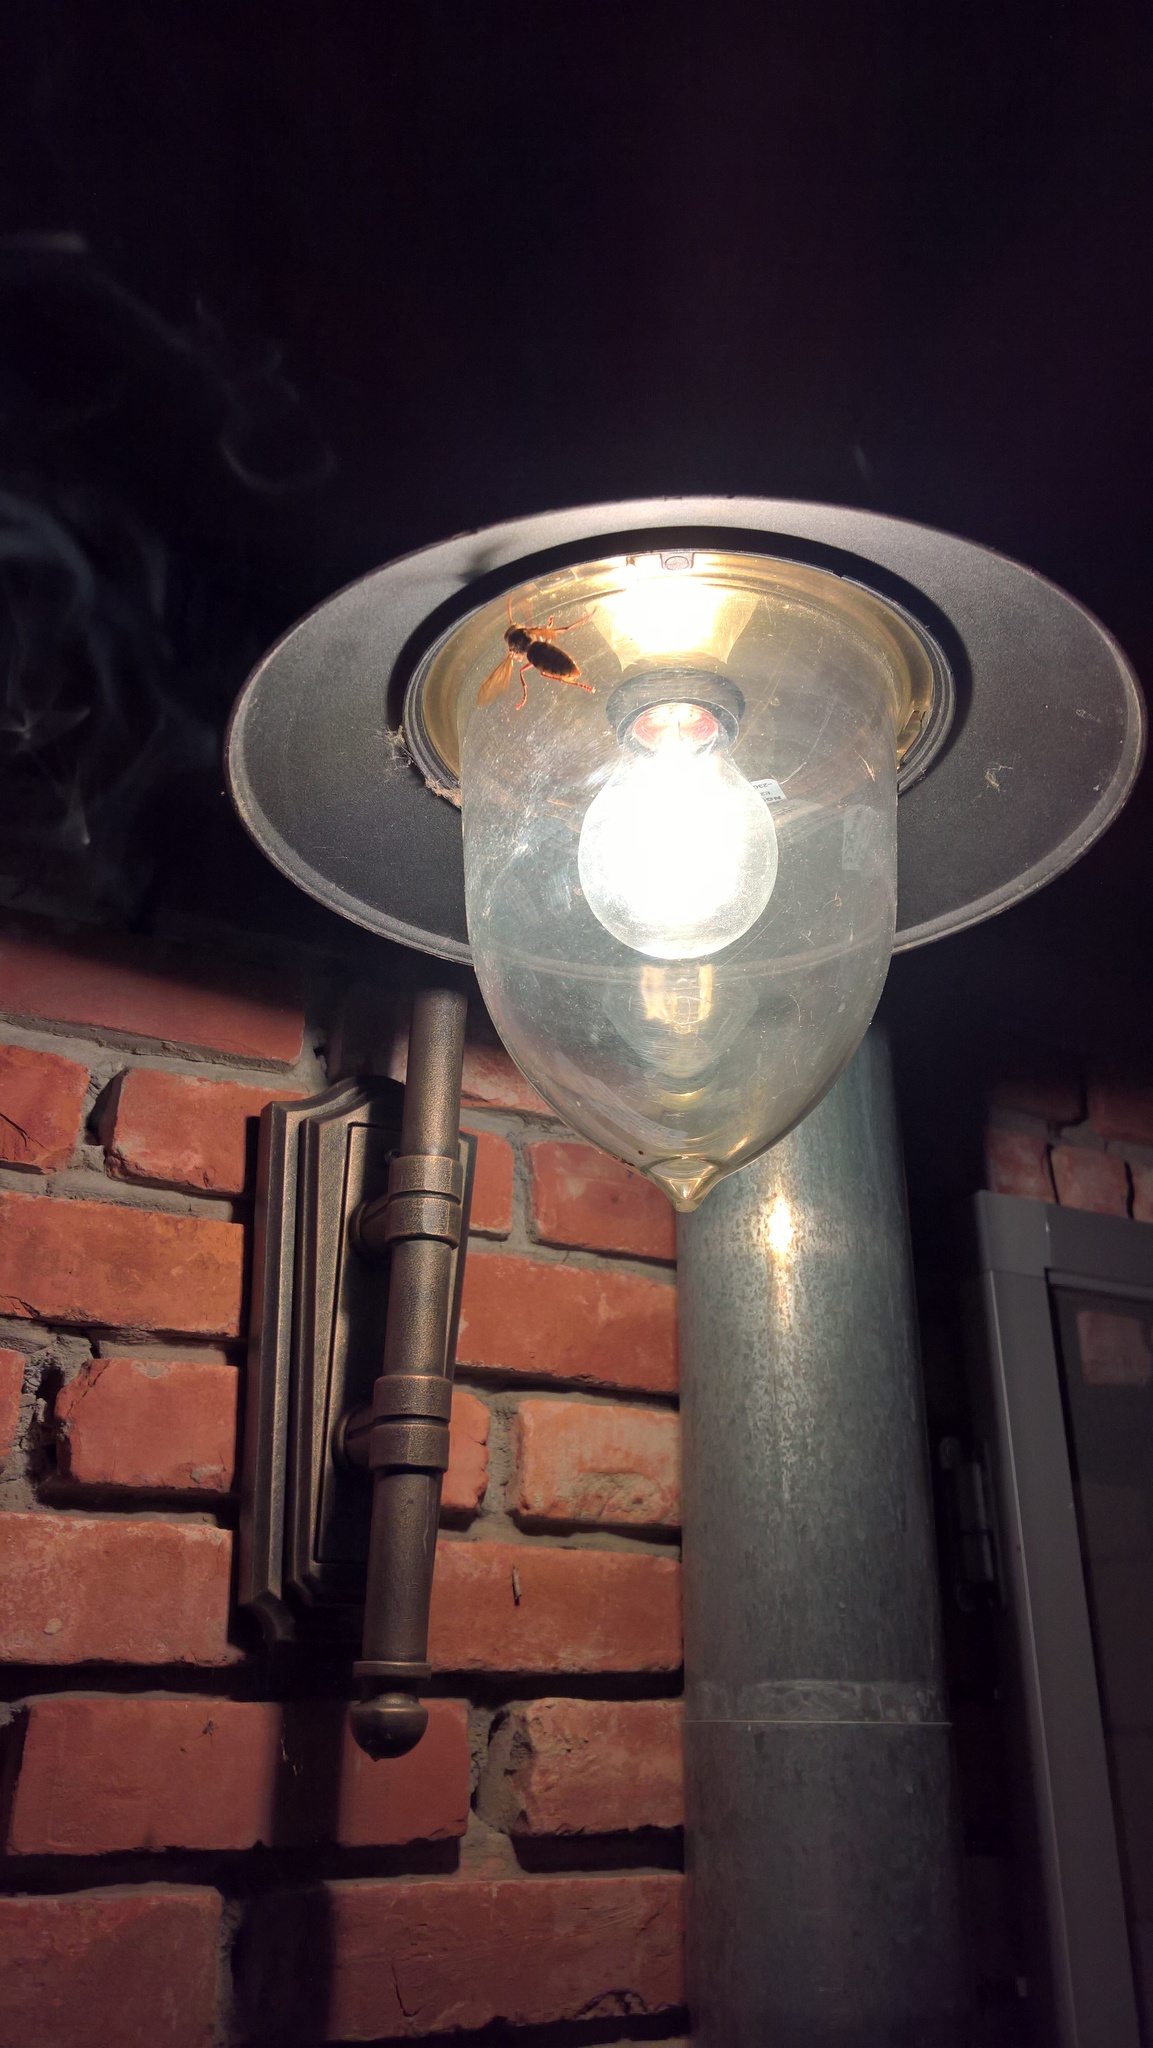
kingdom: Animalia
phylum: Arthropoda
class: Insecta
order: Hymenoptera
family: Vespidae
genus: Vespa
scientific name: Vespa crabro
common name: Hornet
